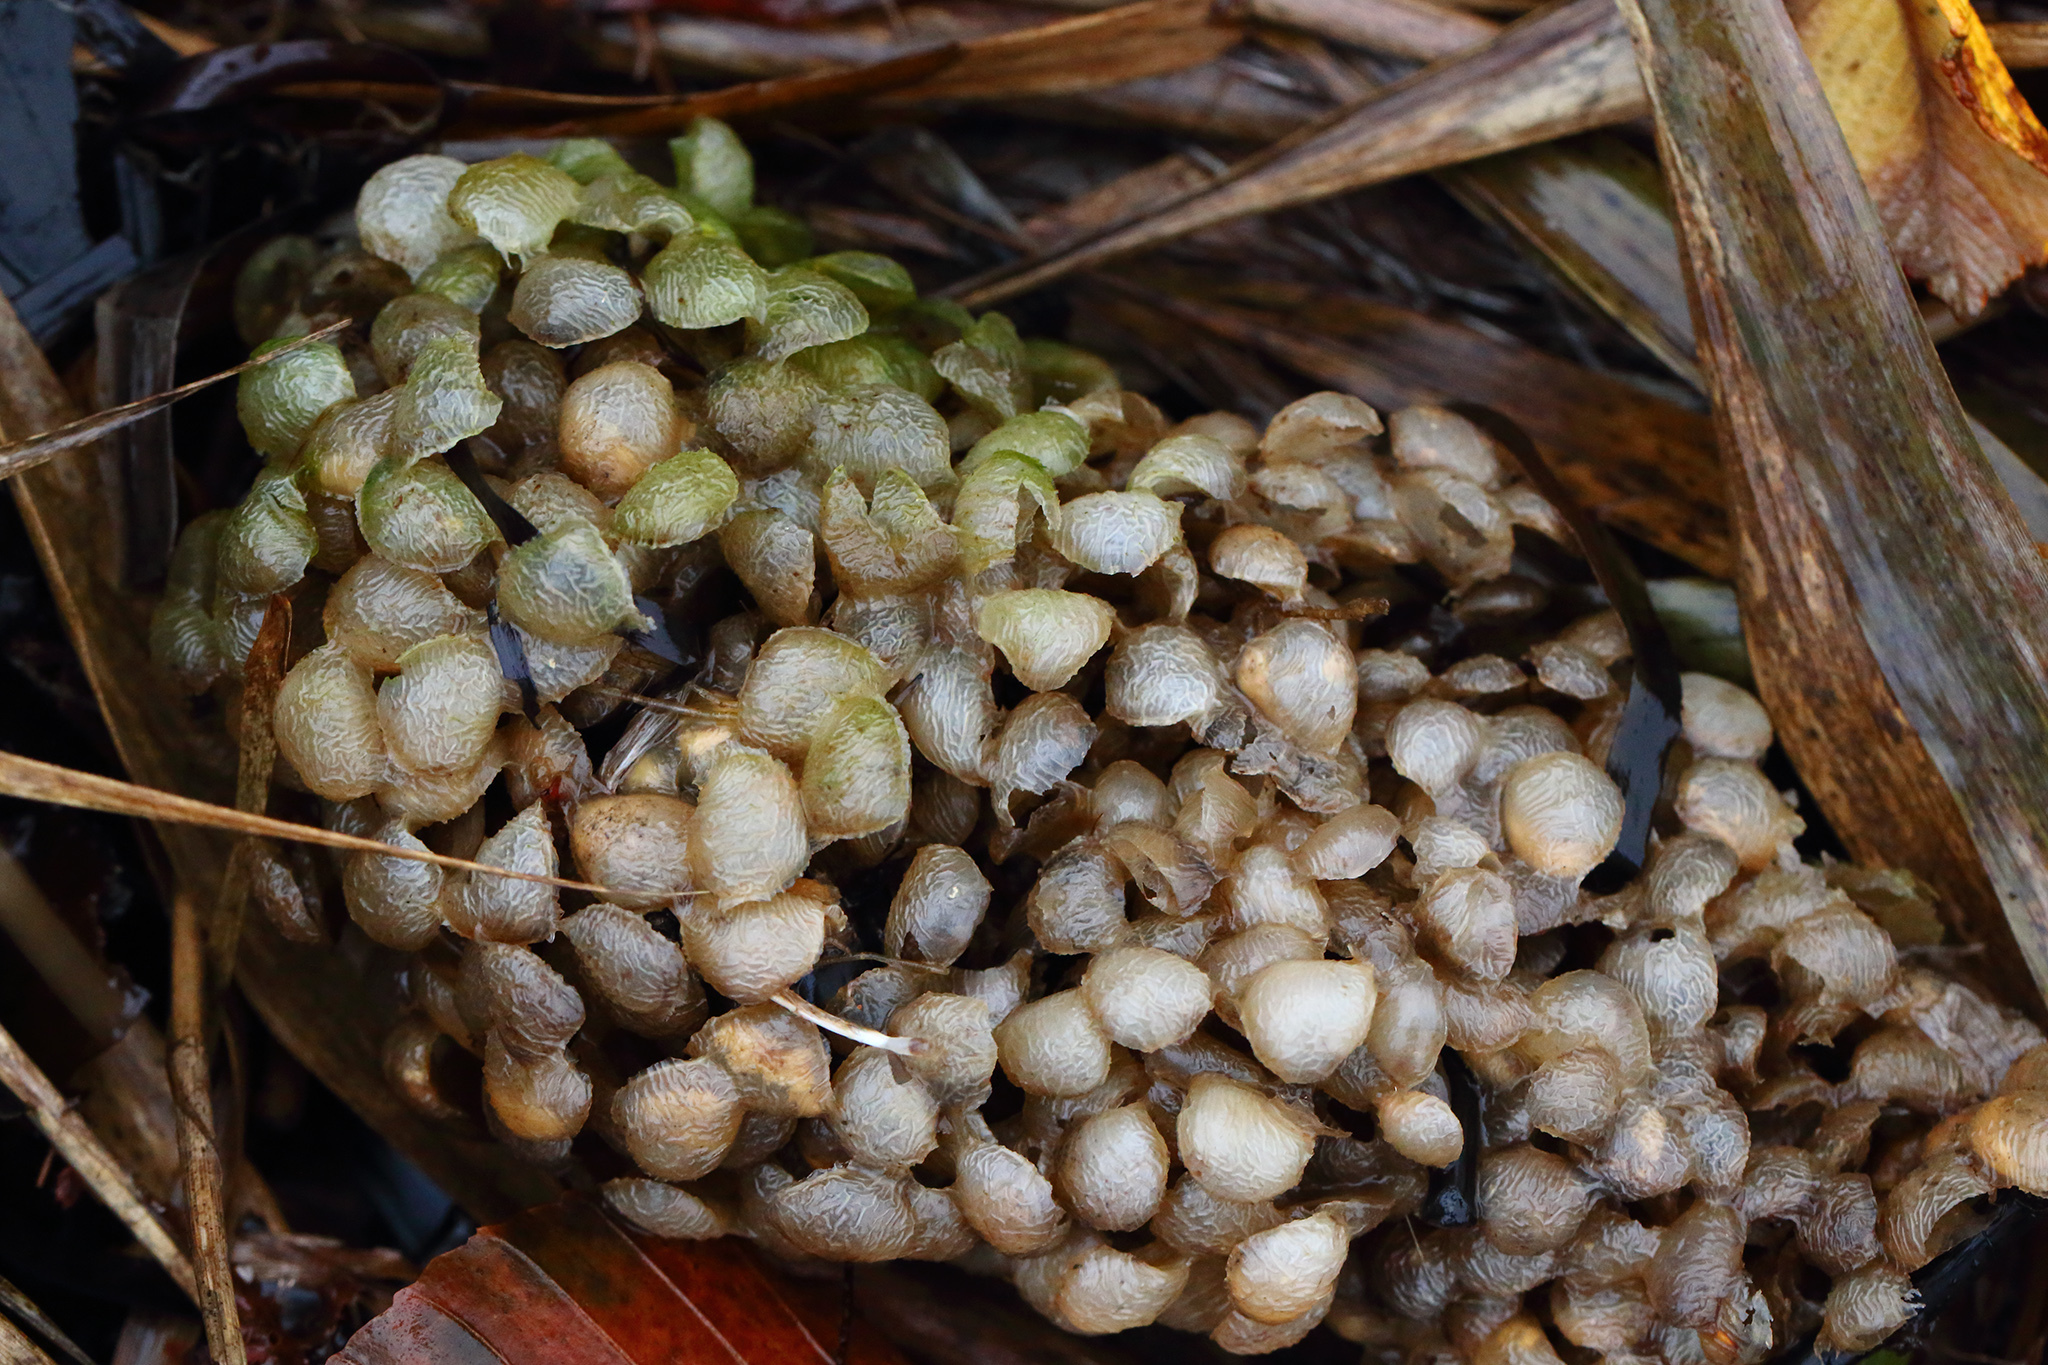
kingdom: Animalia
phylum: Mollusca
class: Gastropoda
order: Neogastropoda
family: Buccinidae
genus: Buccinum
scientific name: Buccinum undatum
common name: Common whelk
